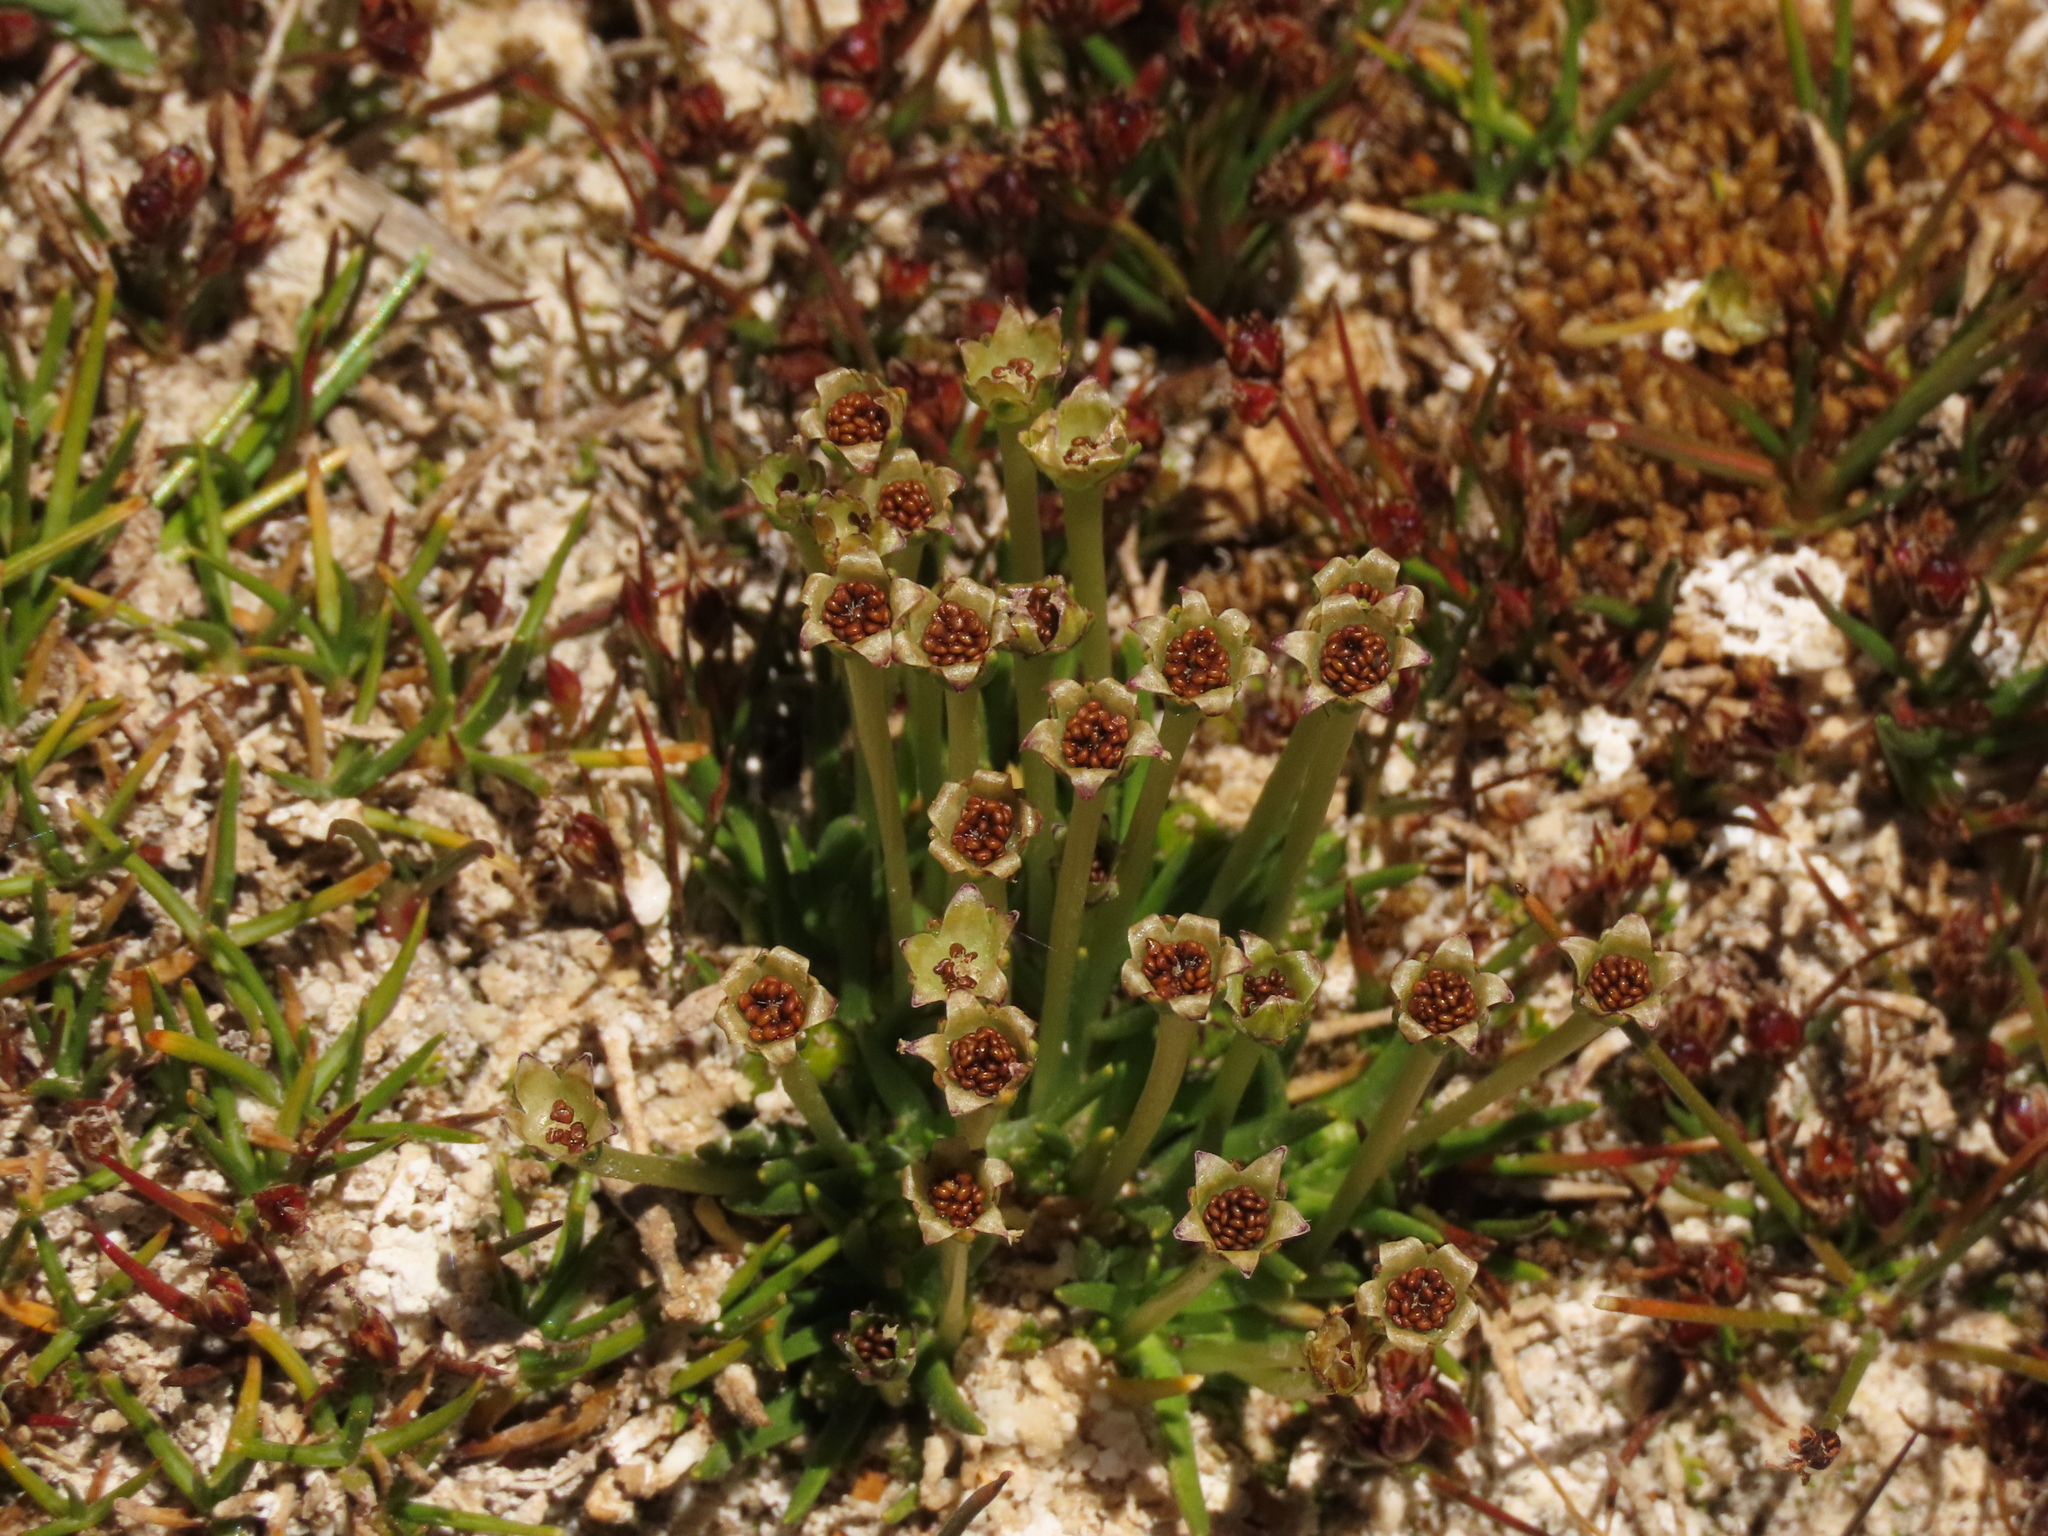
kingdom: Plantae
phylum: Tracheophyta
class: Magnoliopsida
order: Caryophyllales
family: Caryophyllaceae
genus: Colobanthus
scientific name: Colobanthus quitensis
